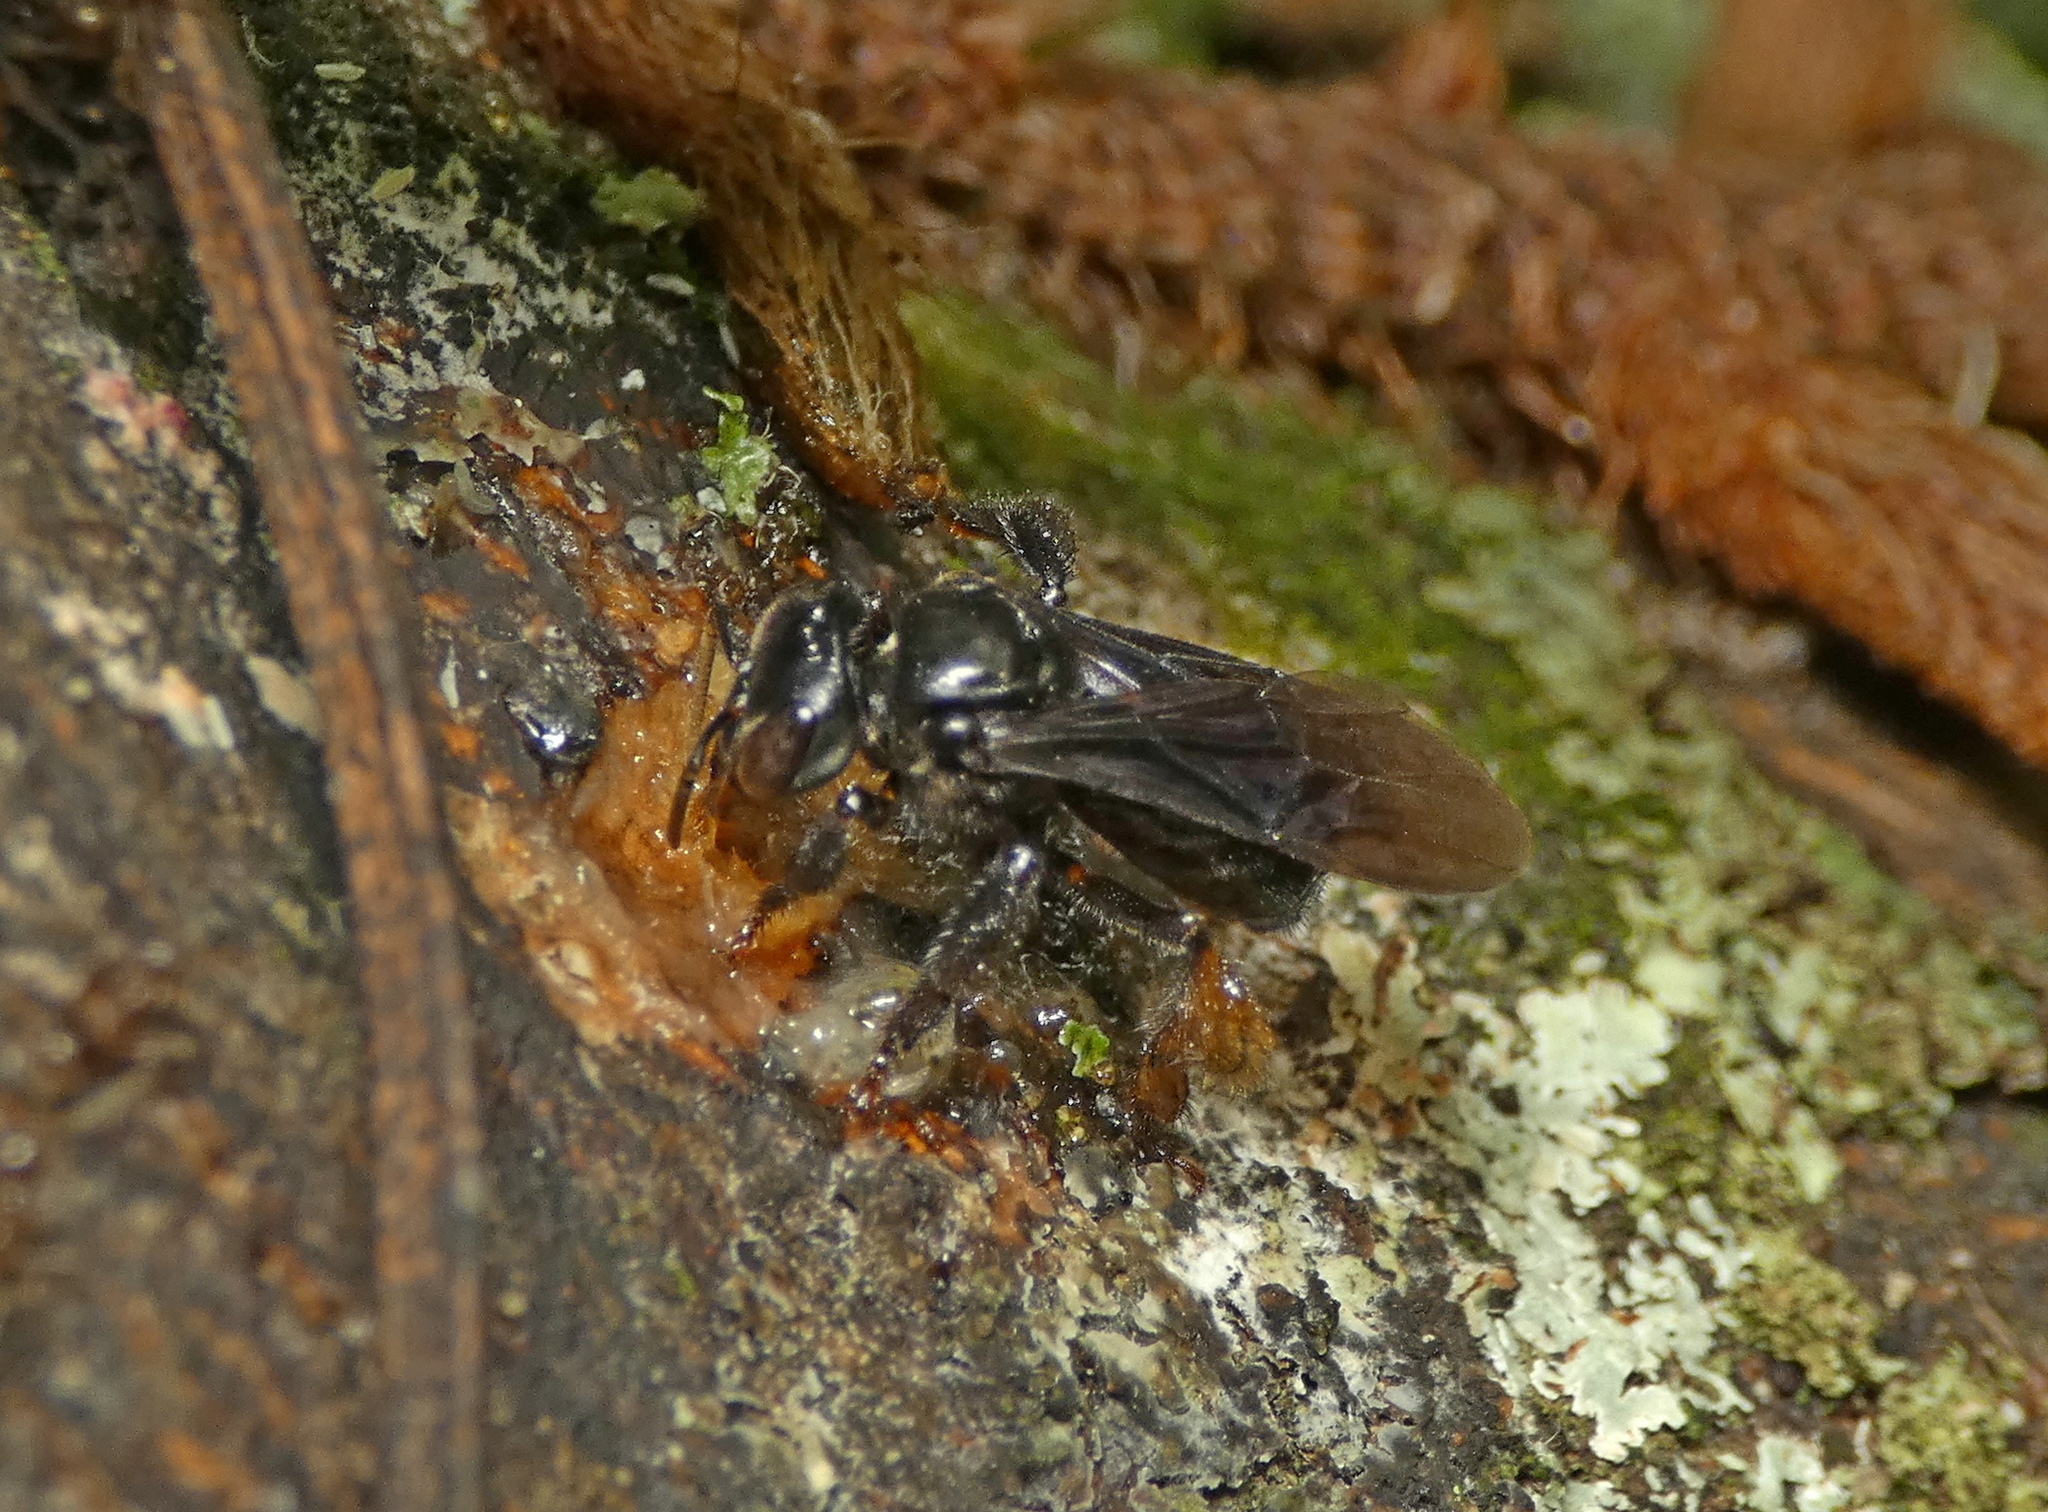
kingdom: Animalia
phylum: Arthropoda
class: Insecta
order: Hymenoptera
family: Apidae
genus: Trigona
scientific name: Trigona spinipes
